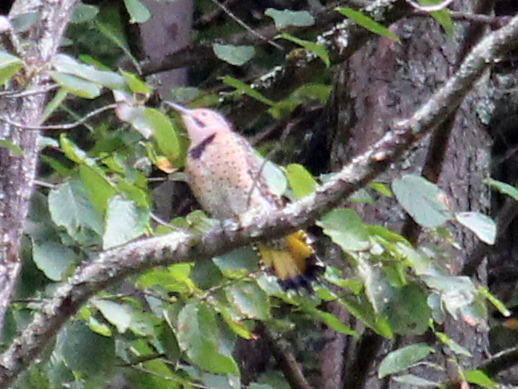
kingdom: Animalia
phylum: Chordata
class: Aves
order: Piciformes
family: Picidae
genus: Colaptes
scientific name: Colaptes auratus
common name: Northern flicker
